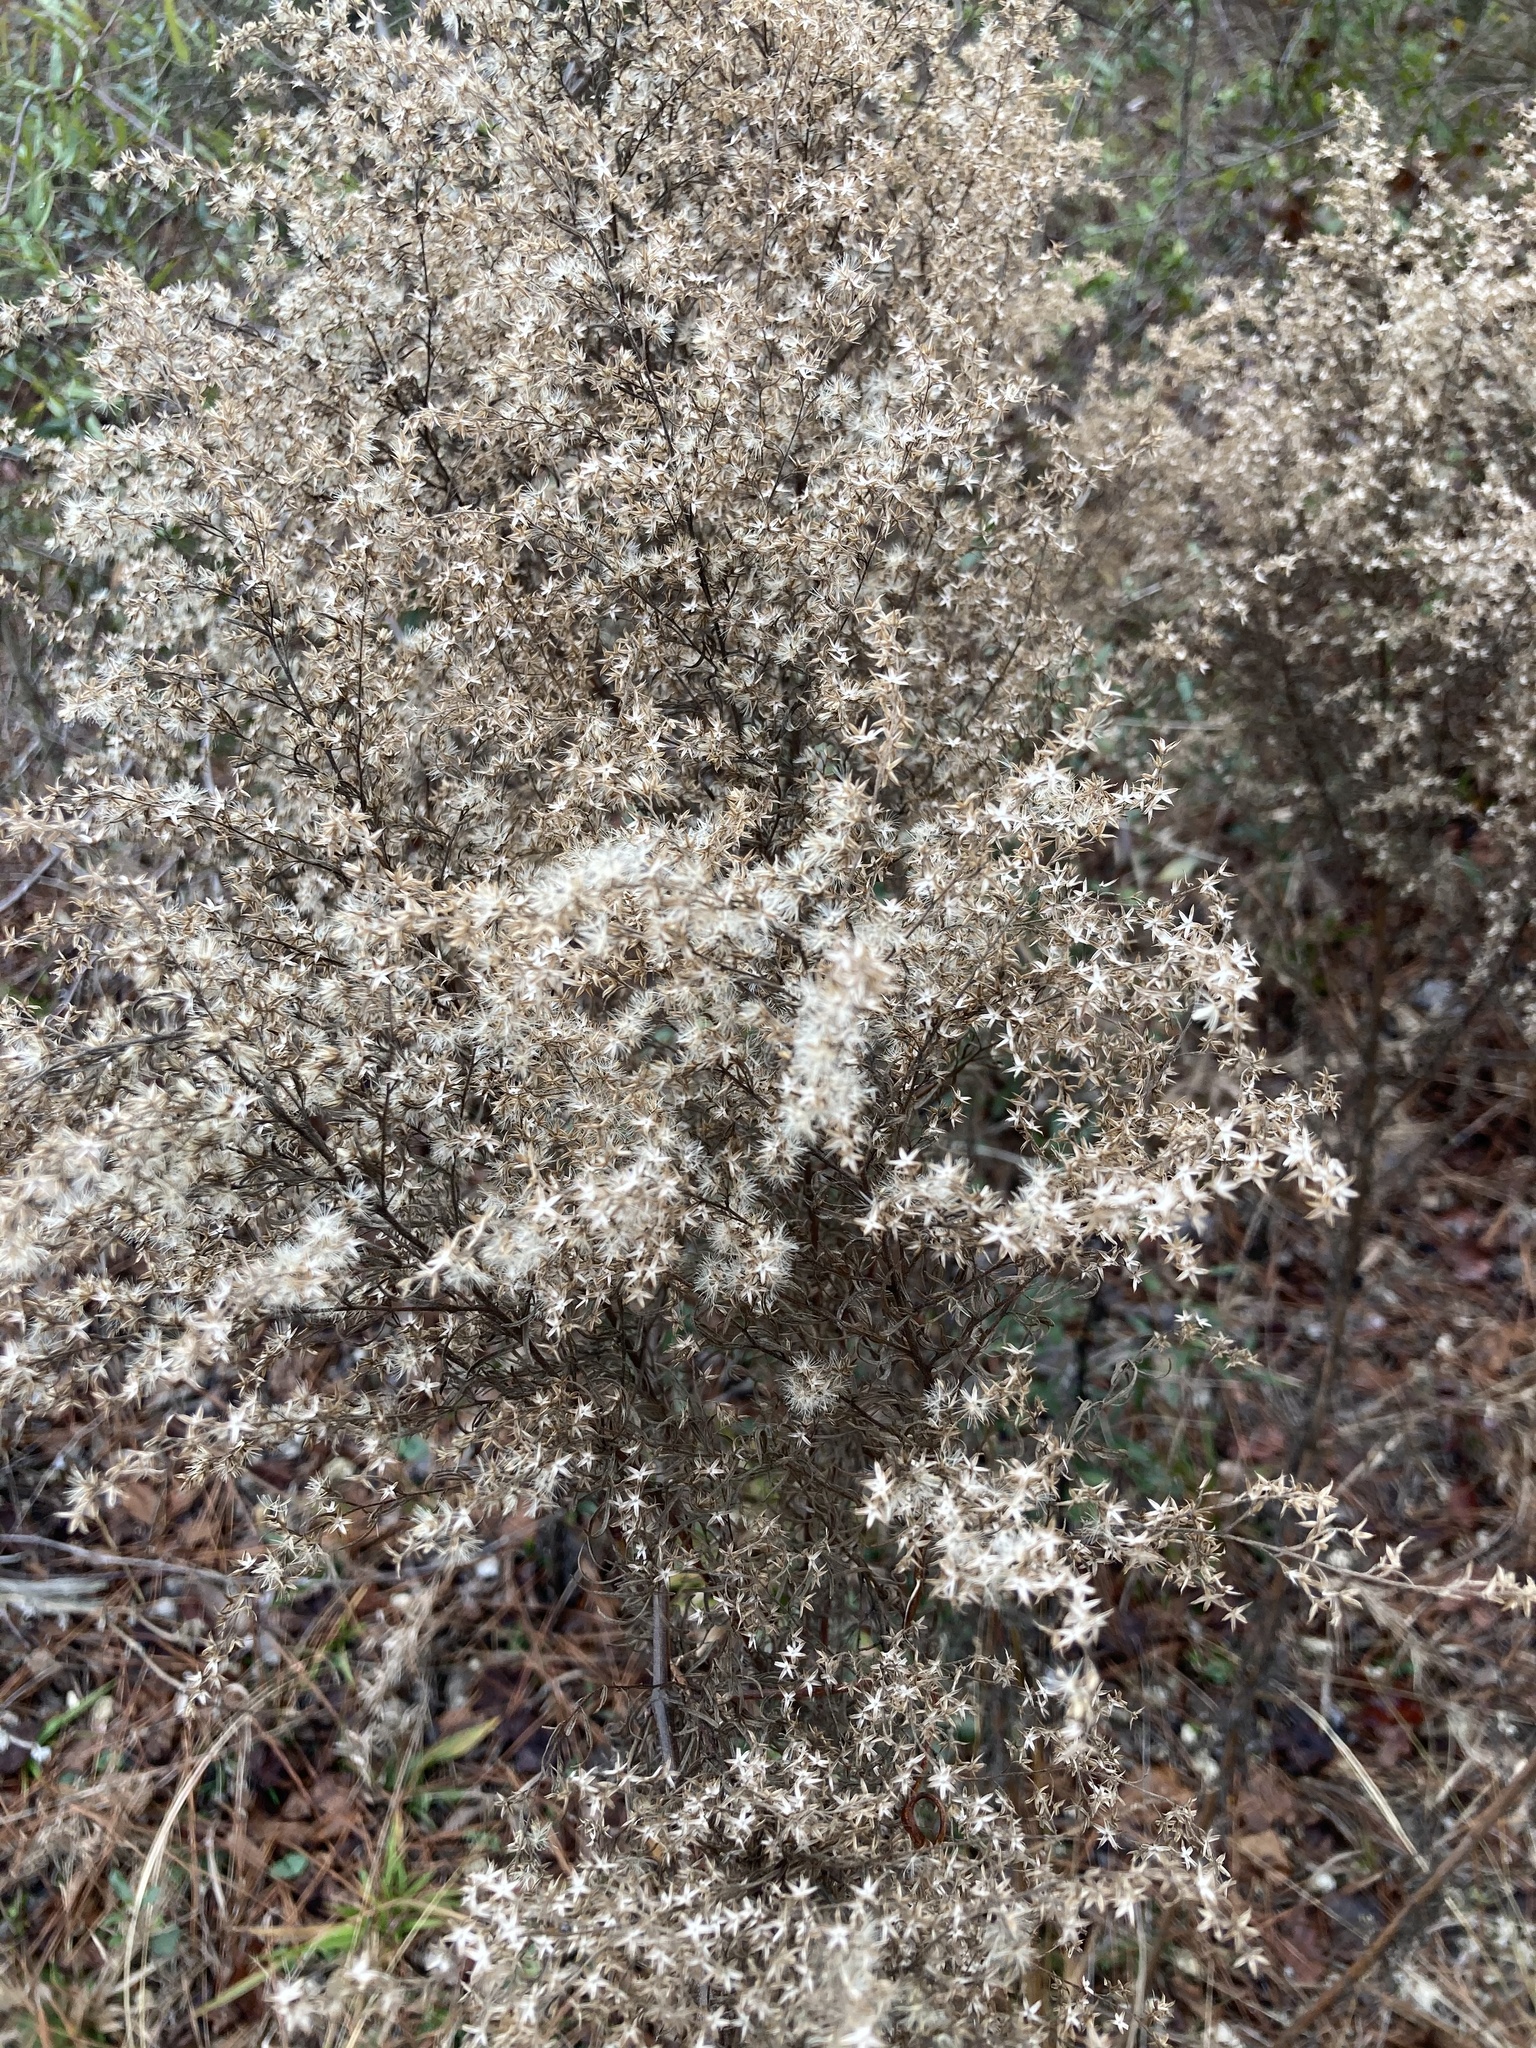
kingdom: Plantae
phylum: Tracheophyta
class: Magnoliopsida
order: Asterales
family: Asteraceae
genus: Eupatorium
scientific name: Eupatorium compositifolium
